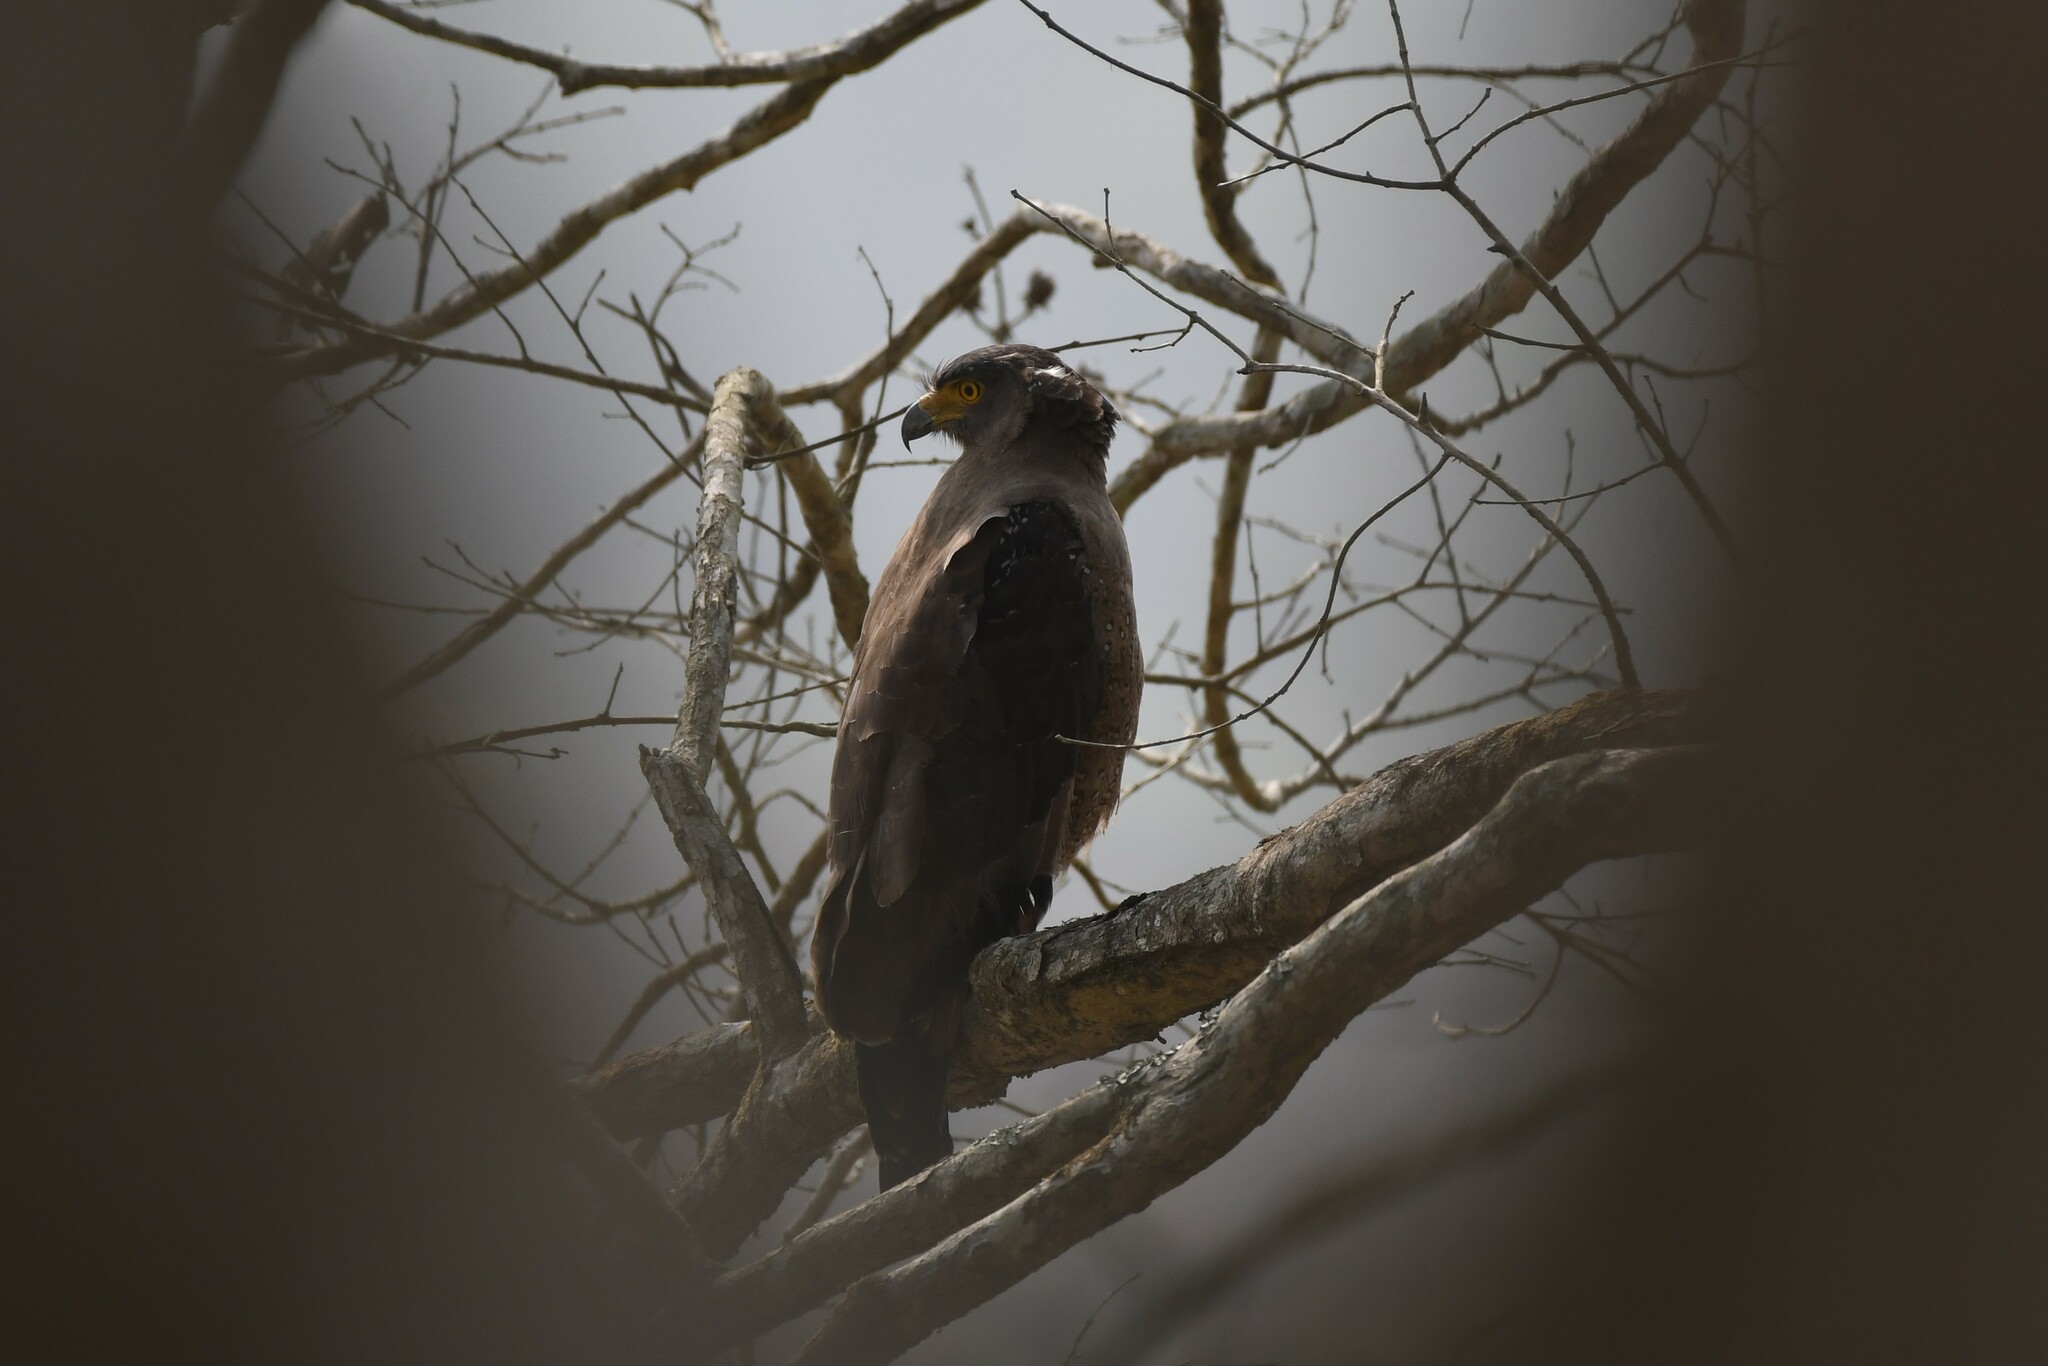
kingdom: Animalia
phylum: Chordata
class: Aves
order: Accipitriformes
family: Accipitridae
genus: Spilornis
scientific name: Spilornis cheela
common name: Crested serpent eagle
